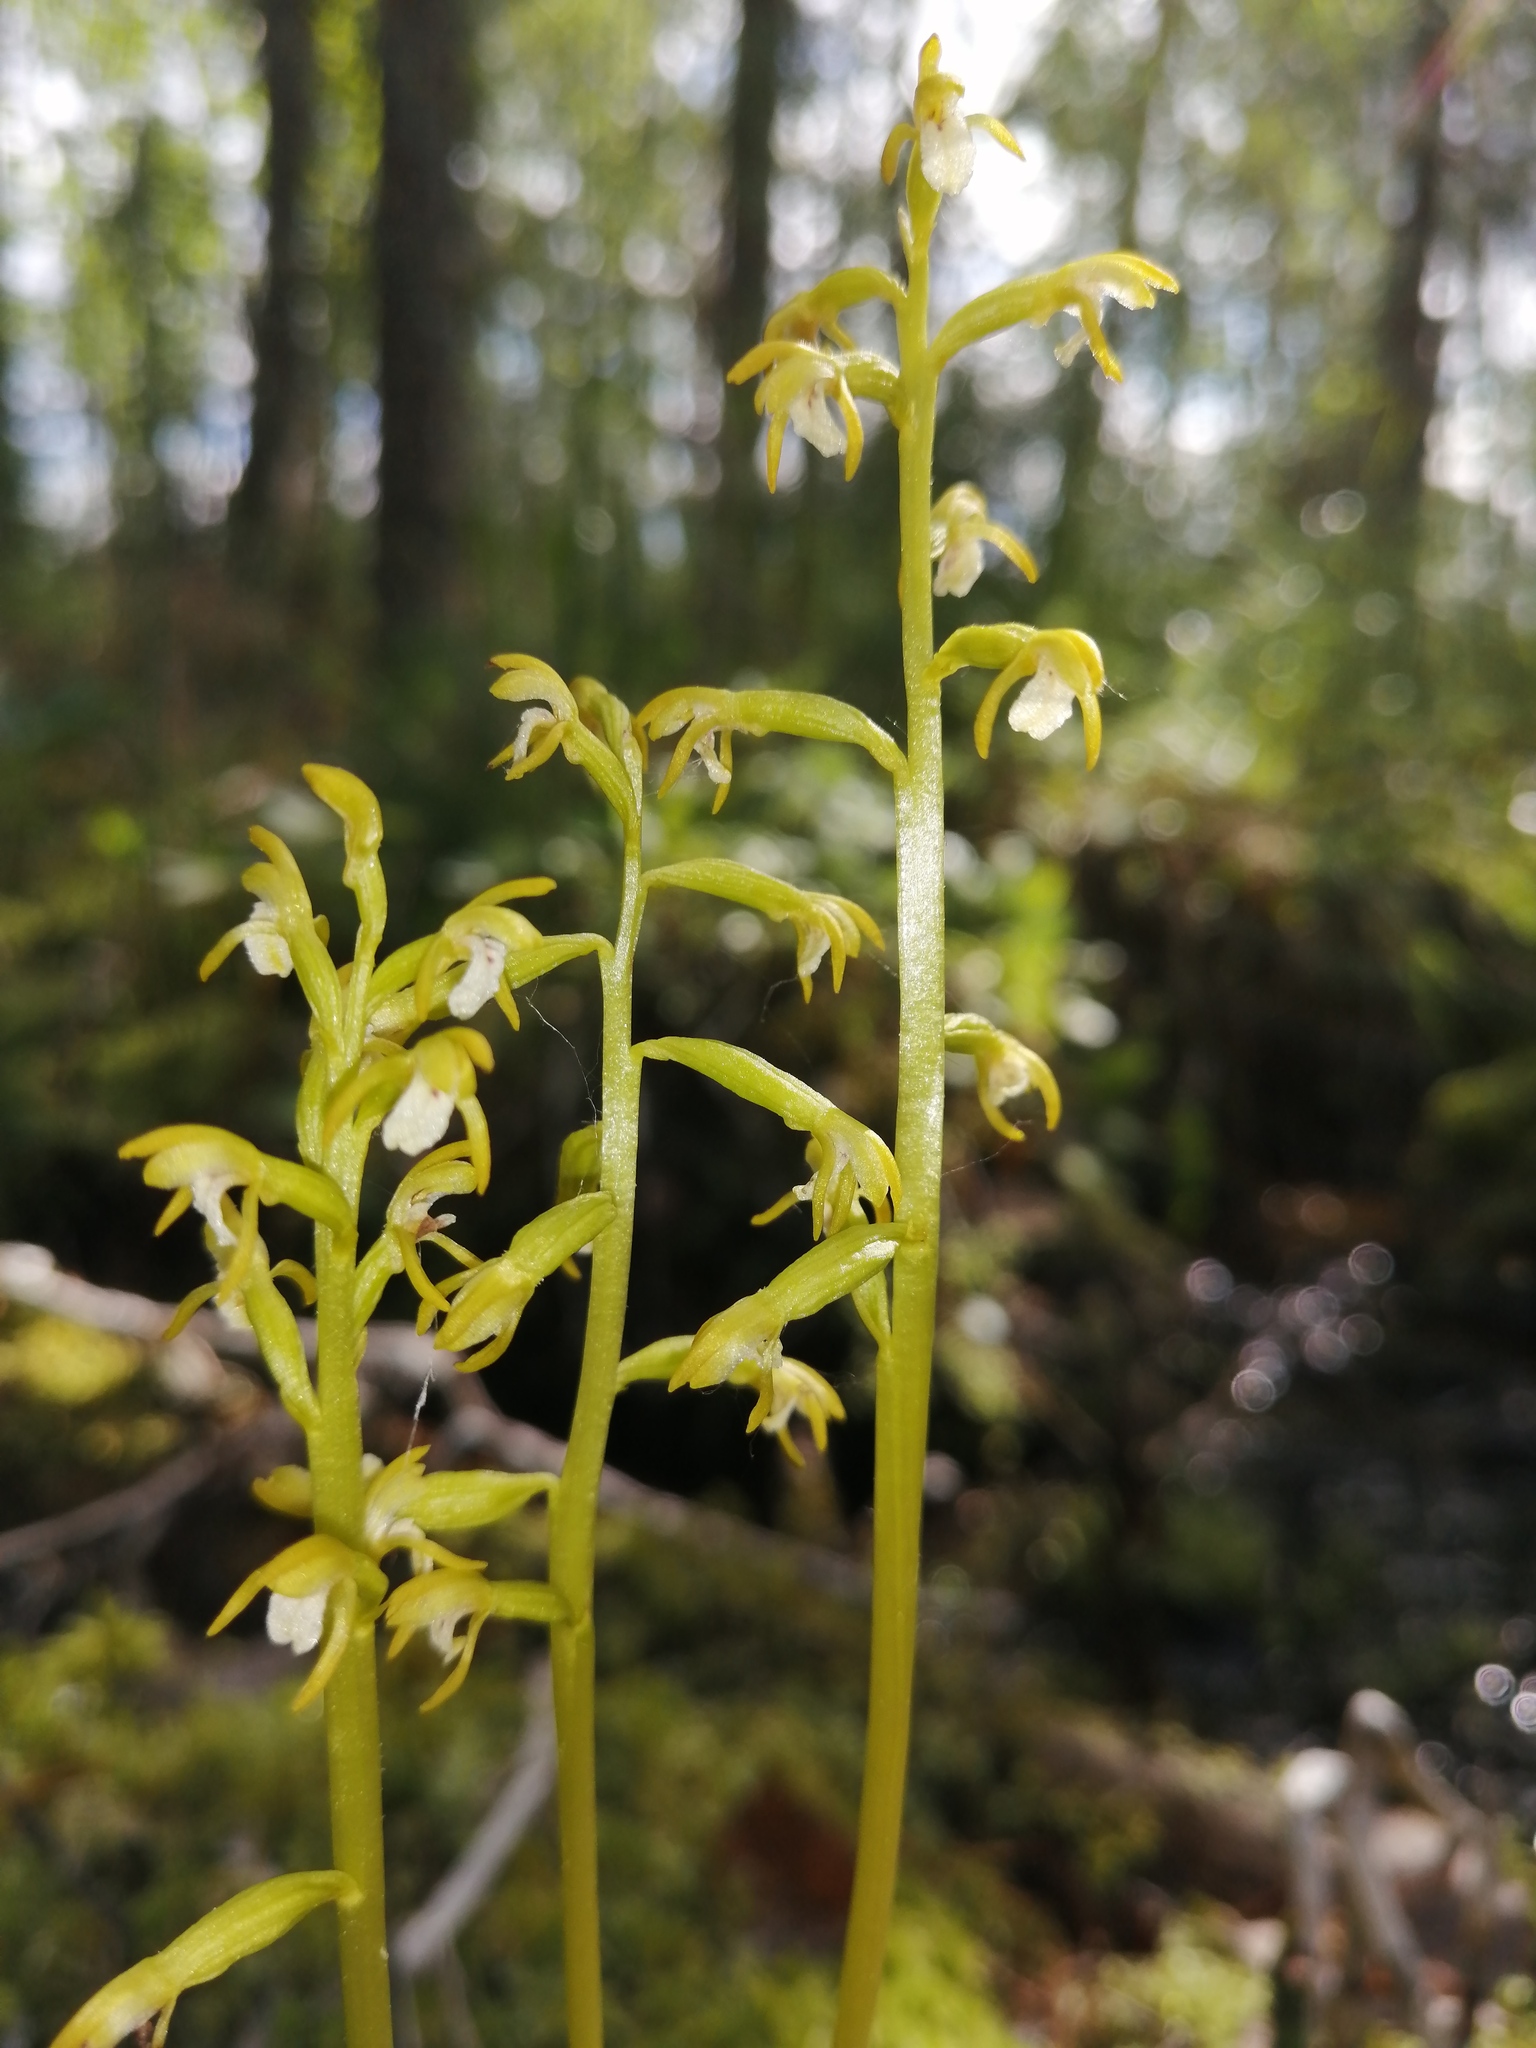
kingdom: Plantae
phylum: Tracheophyta
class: Liliopsida
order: Asparagales
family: Orchidaceae
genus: Corallorhiza
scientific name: Corallorhiza trifida
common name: Yellow coralroot
